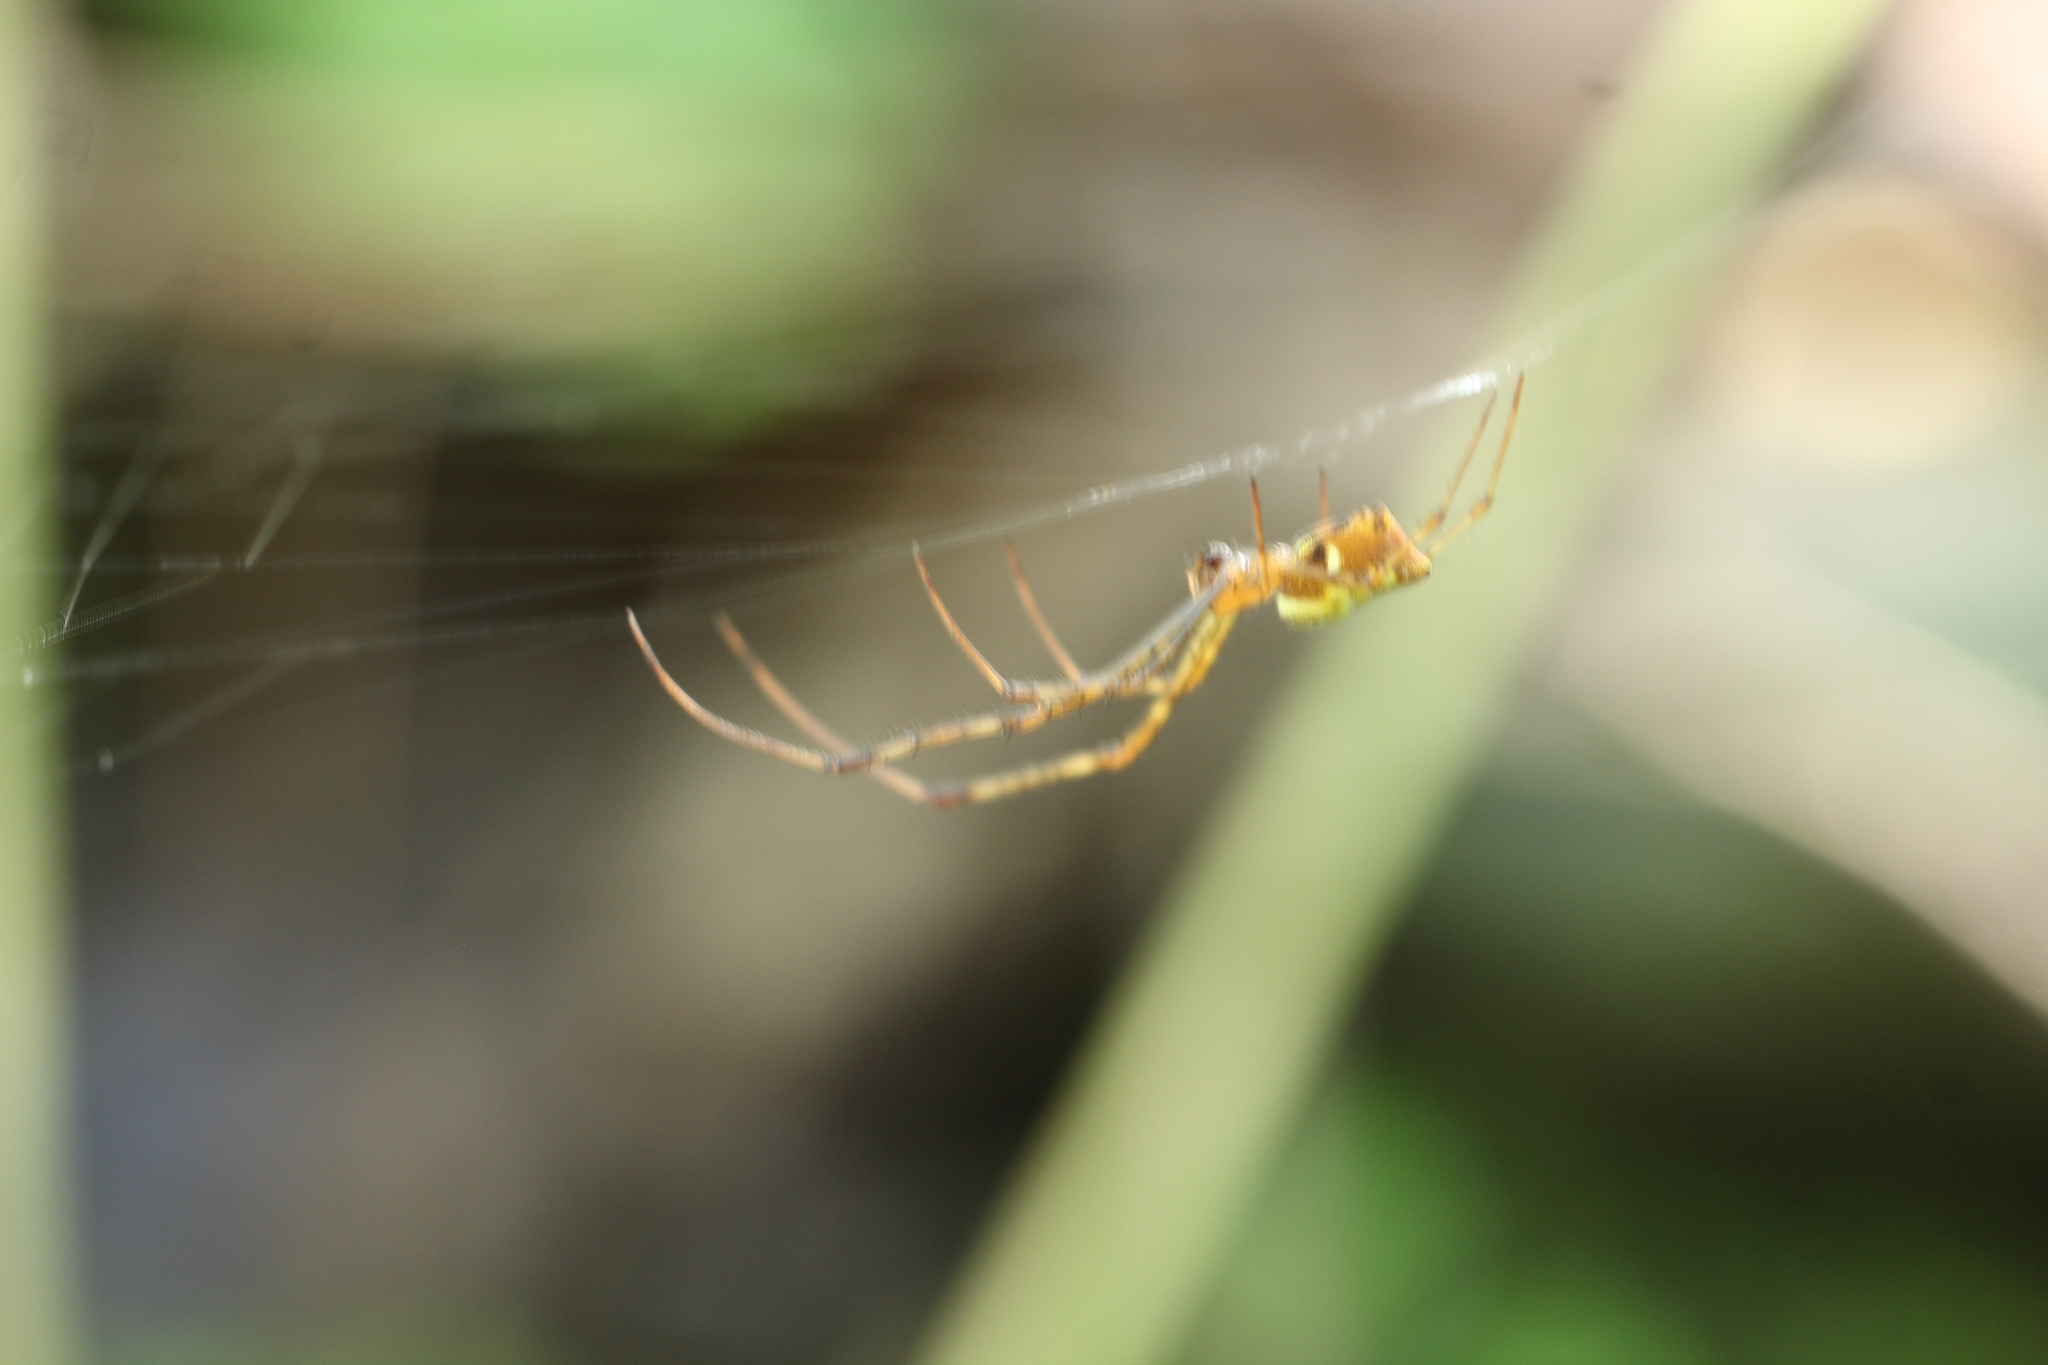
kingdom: Animalia
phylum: Arthropoda
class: Arachnida
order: Araneae
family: Tetragnathidae
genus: Tylorida
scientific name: Tylorida ventralis
